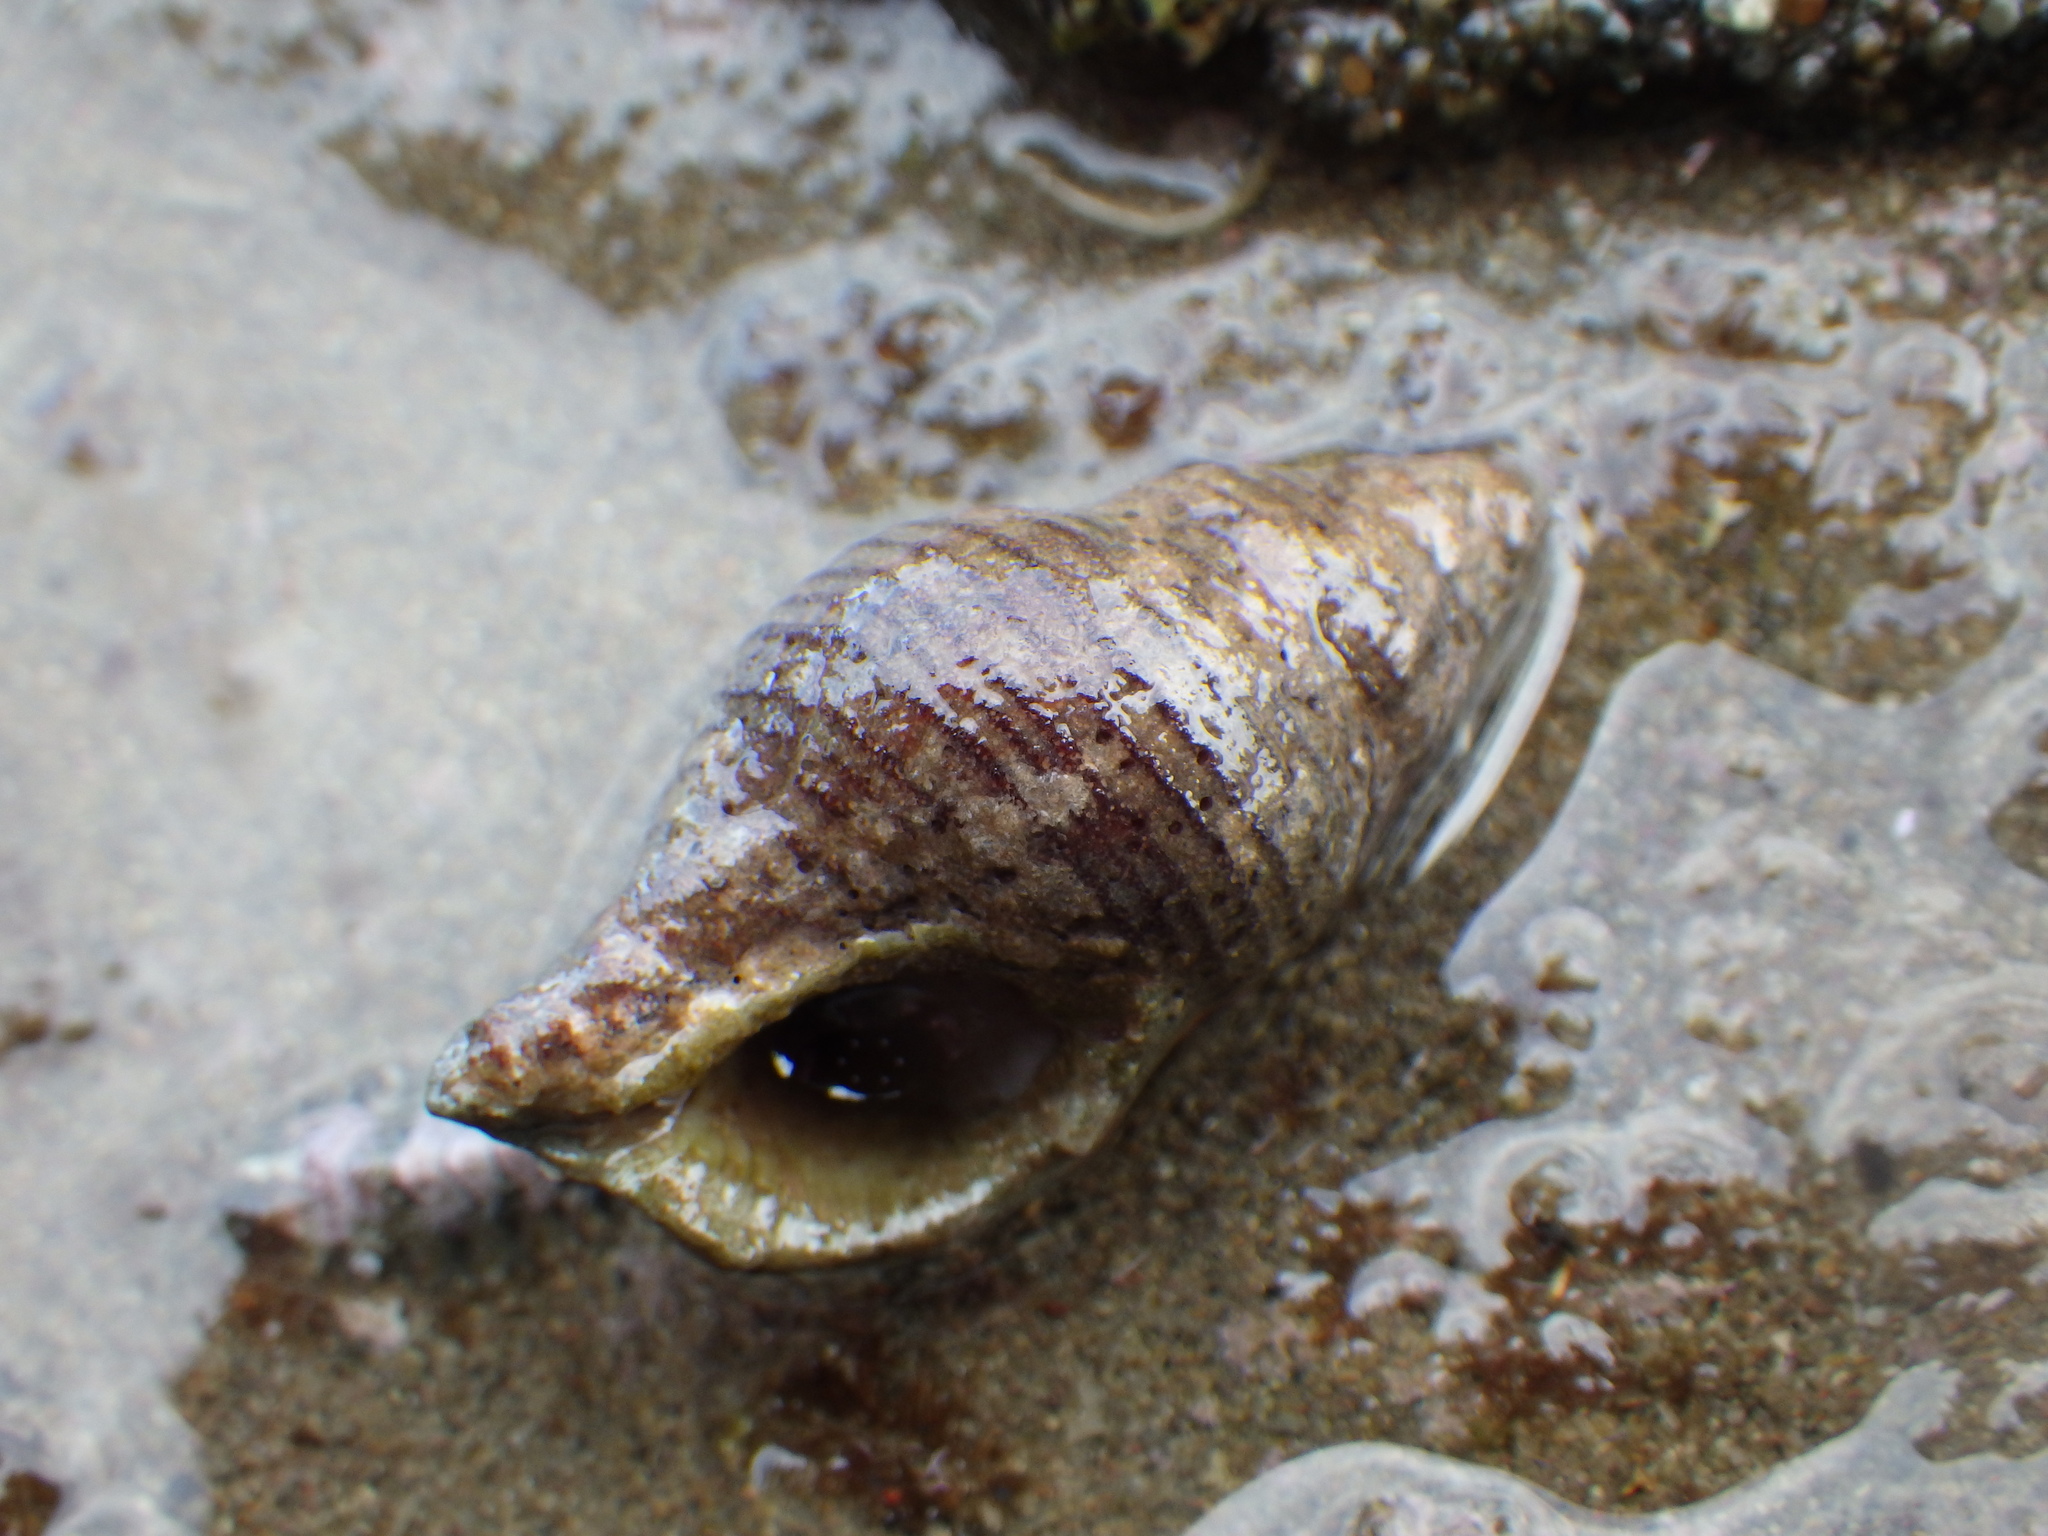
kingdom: Animalia
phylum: Mollusca
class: Gastropoda
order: Neogastropoda
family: Tudiclidae
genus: Buccinulum
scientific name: Buccinulum linea
